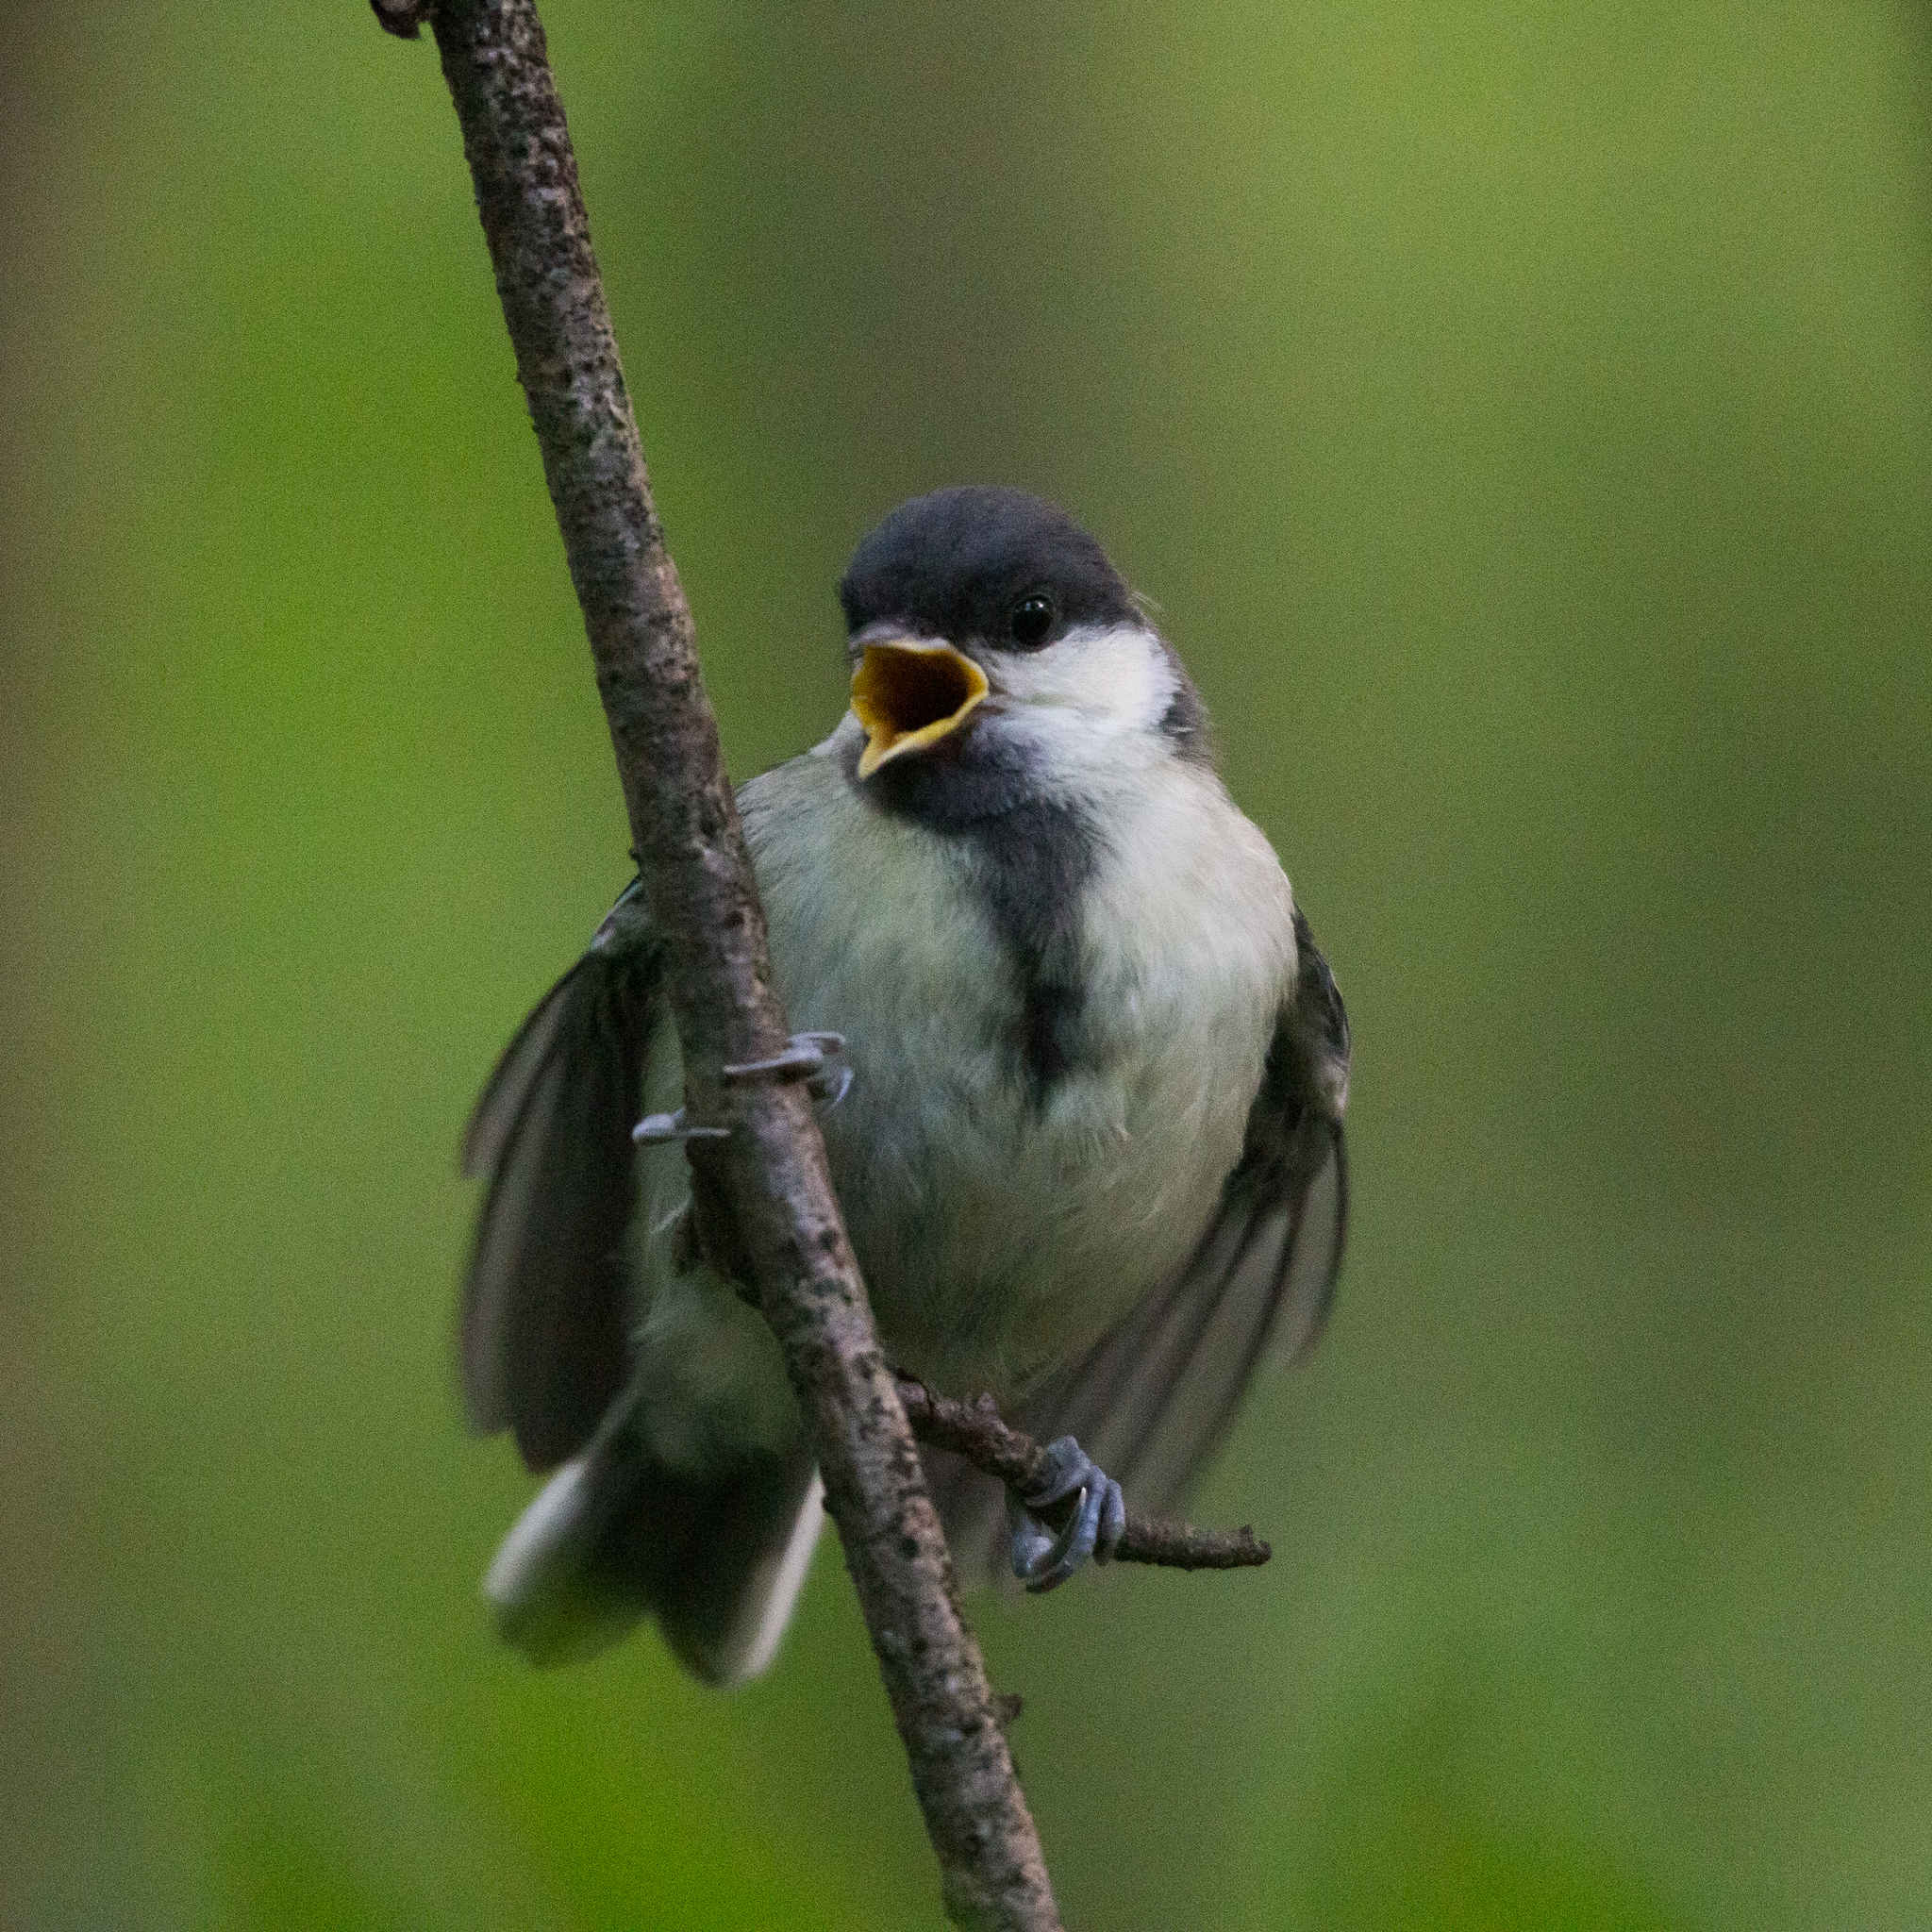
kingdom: Animalia
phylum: Chordata
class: Aves
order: Passeriformes
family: Paridae
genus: Parus
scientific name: Parus major
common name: Great tit
